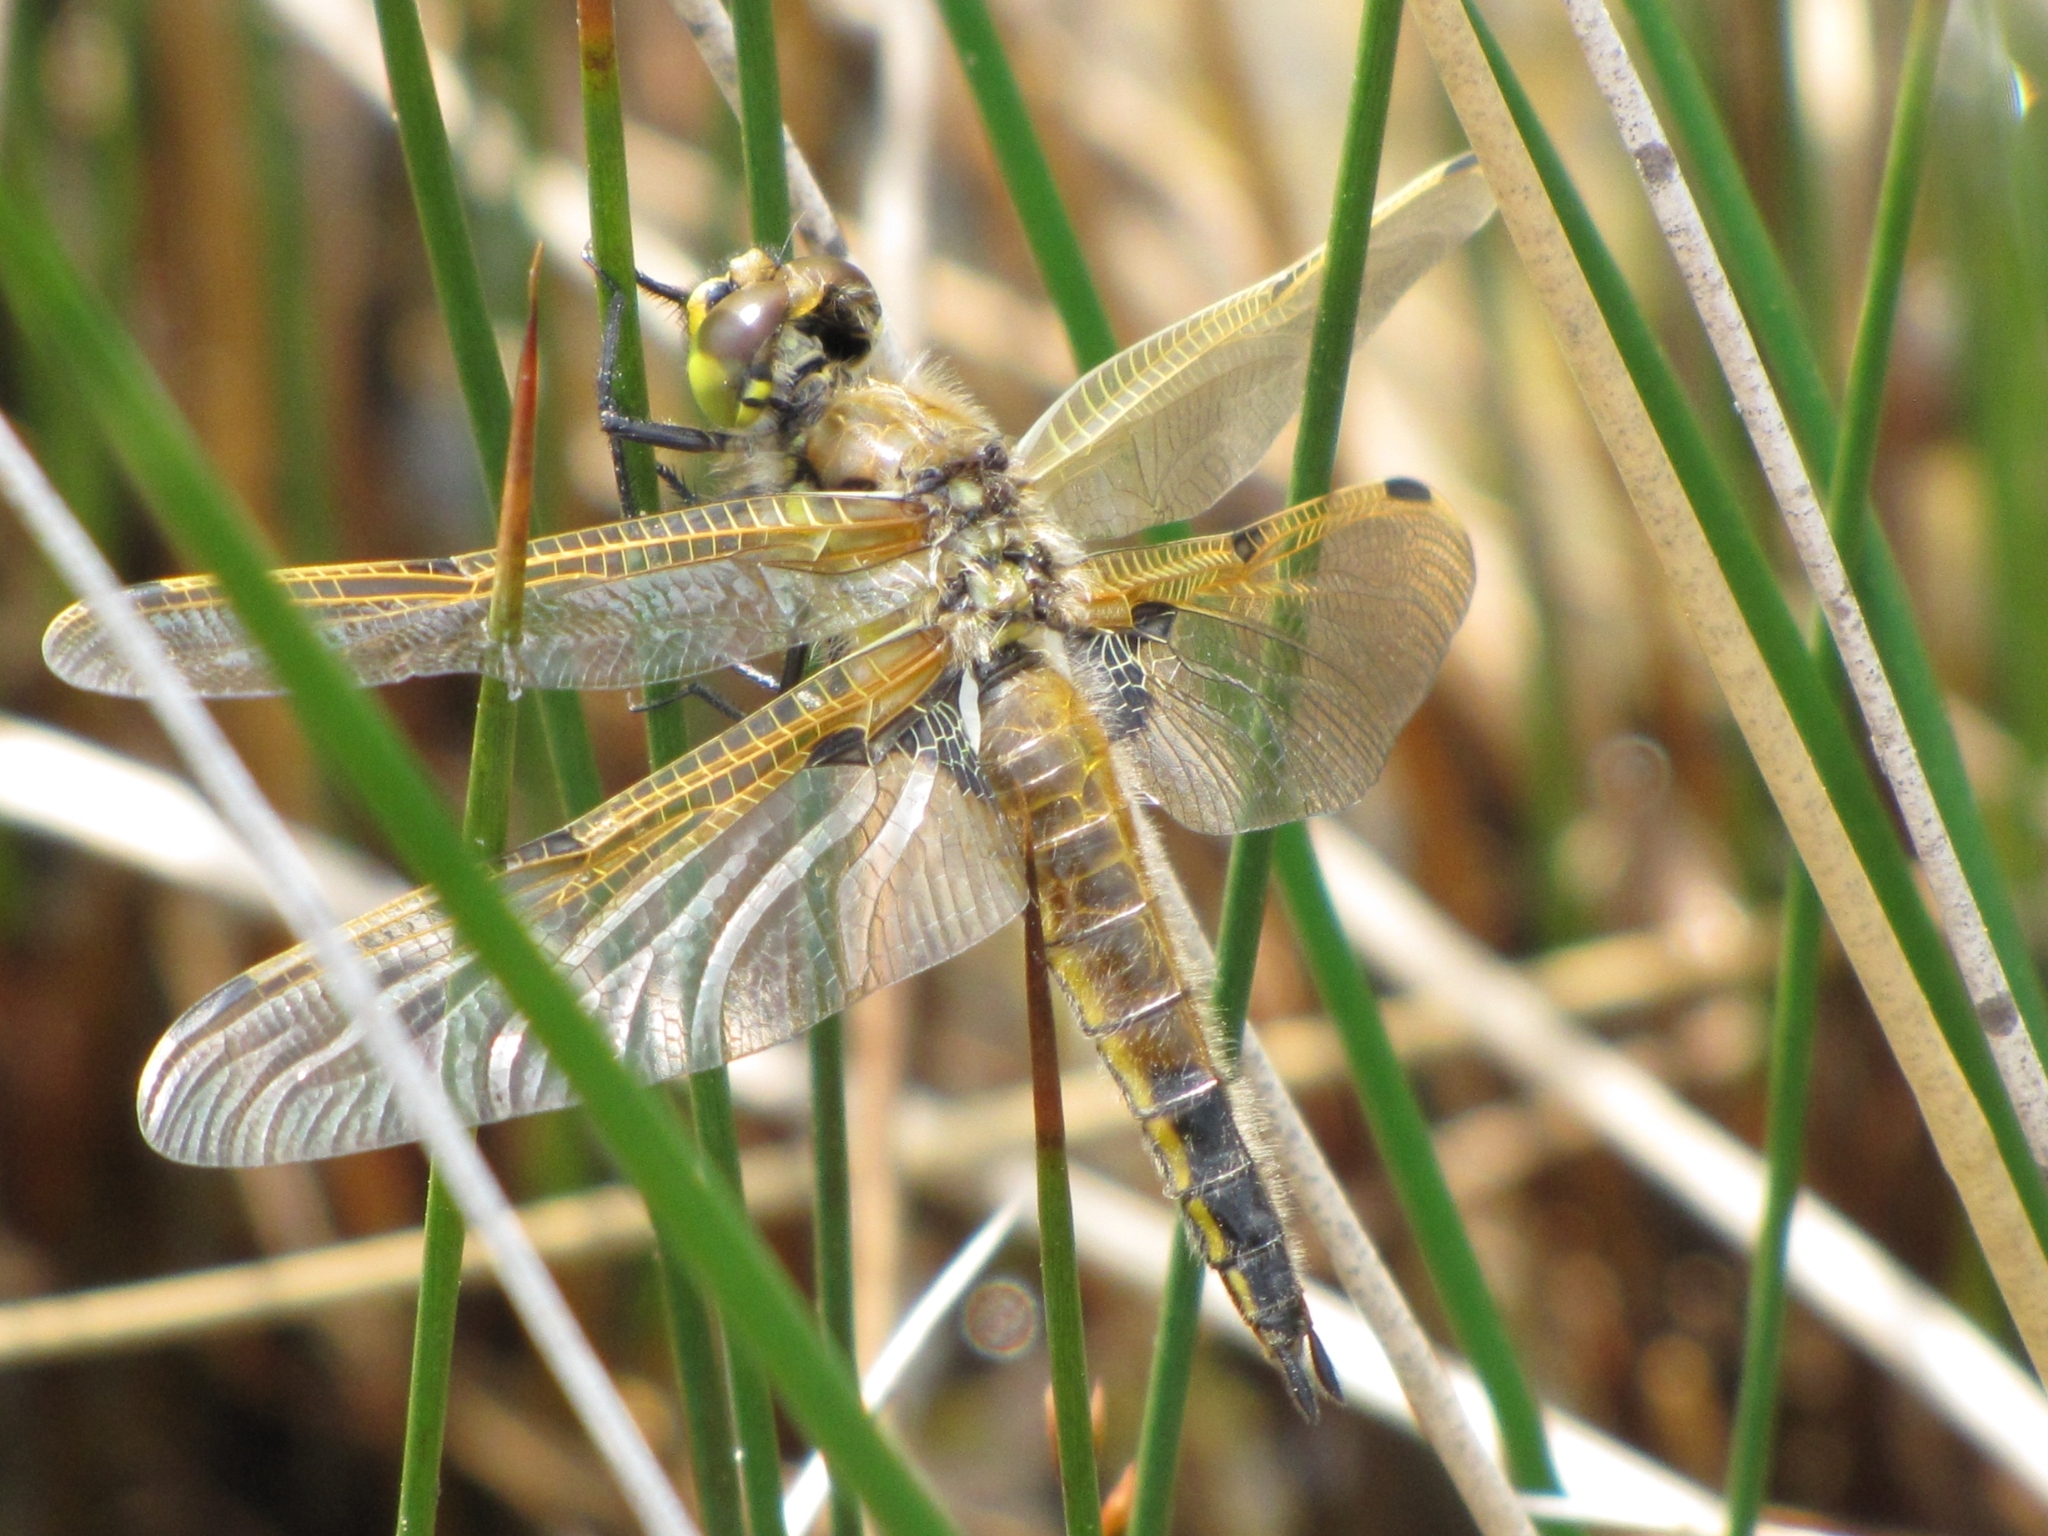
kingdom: Animalia
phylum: Arthropoda
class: Insecta
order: Odonata
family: Libellulidae
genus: Libellula
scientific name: Libellula quadrimaculata
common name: Four-spotted chaser
